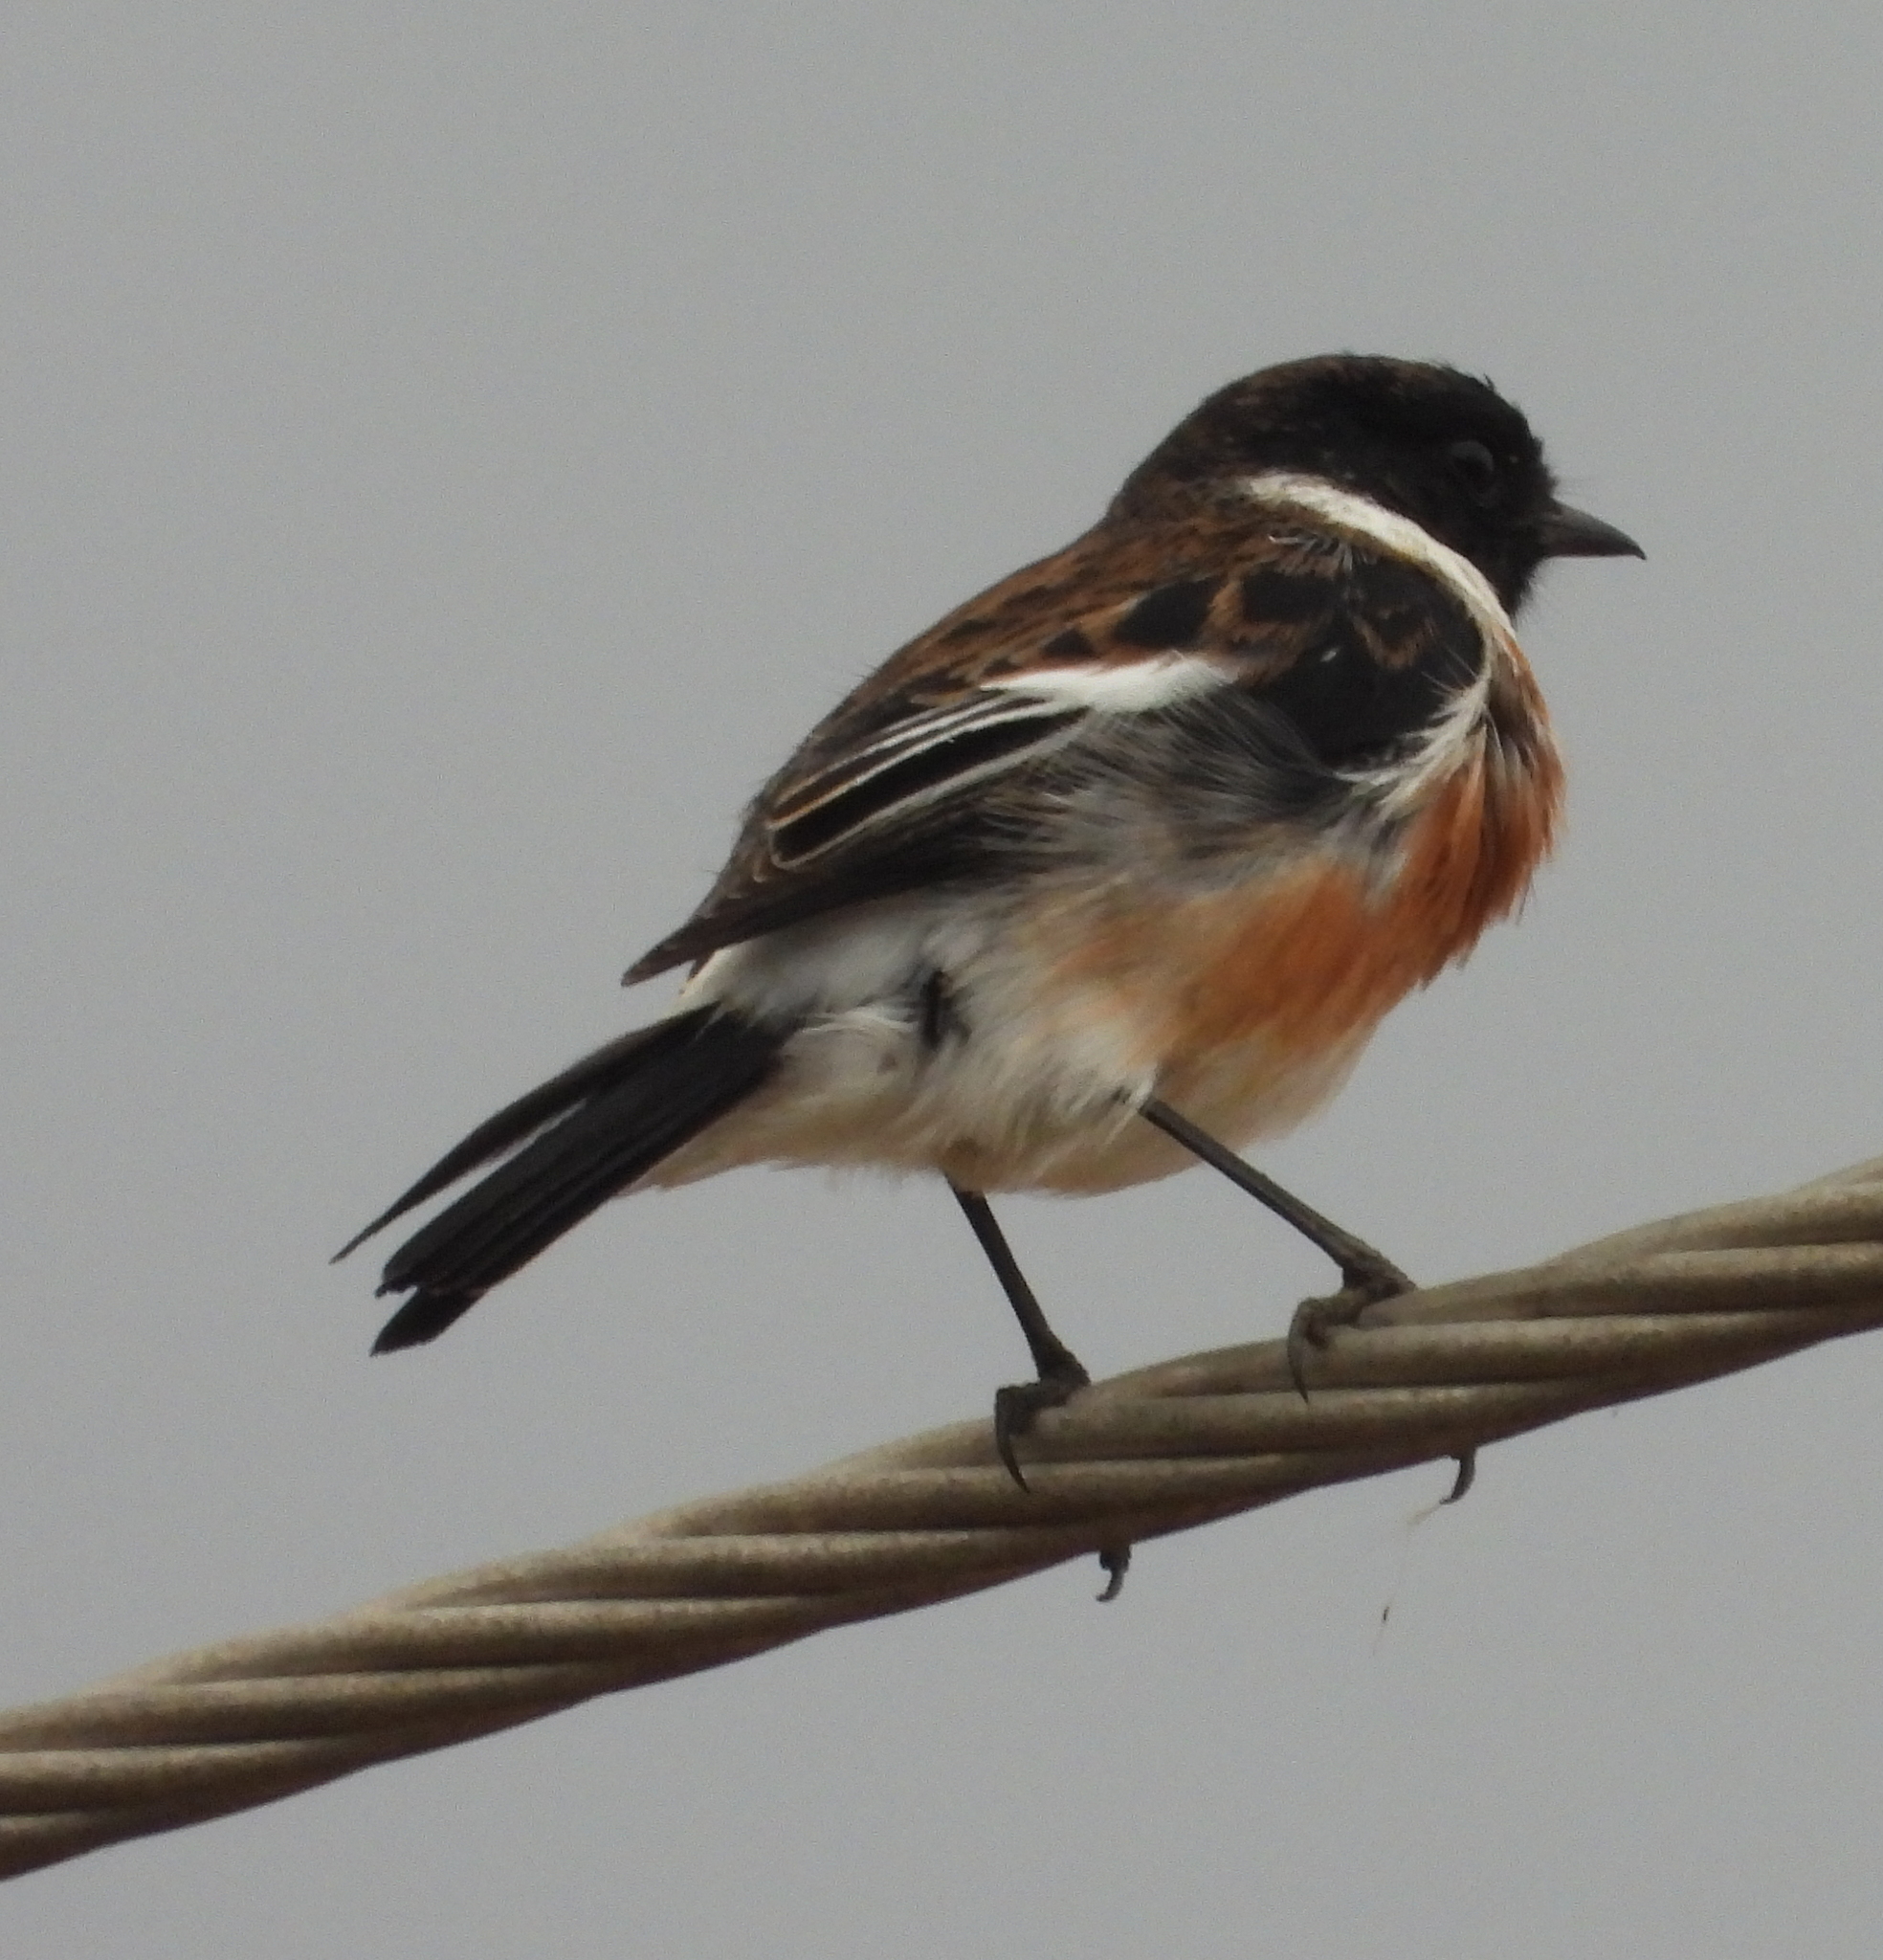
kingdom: Animalia
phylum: Chordata
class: Aves
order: Passeriformes
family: Muscicapidae
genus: Saxicola
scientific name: Saxicola torquatus
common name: African stonechat
